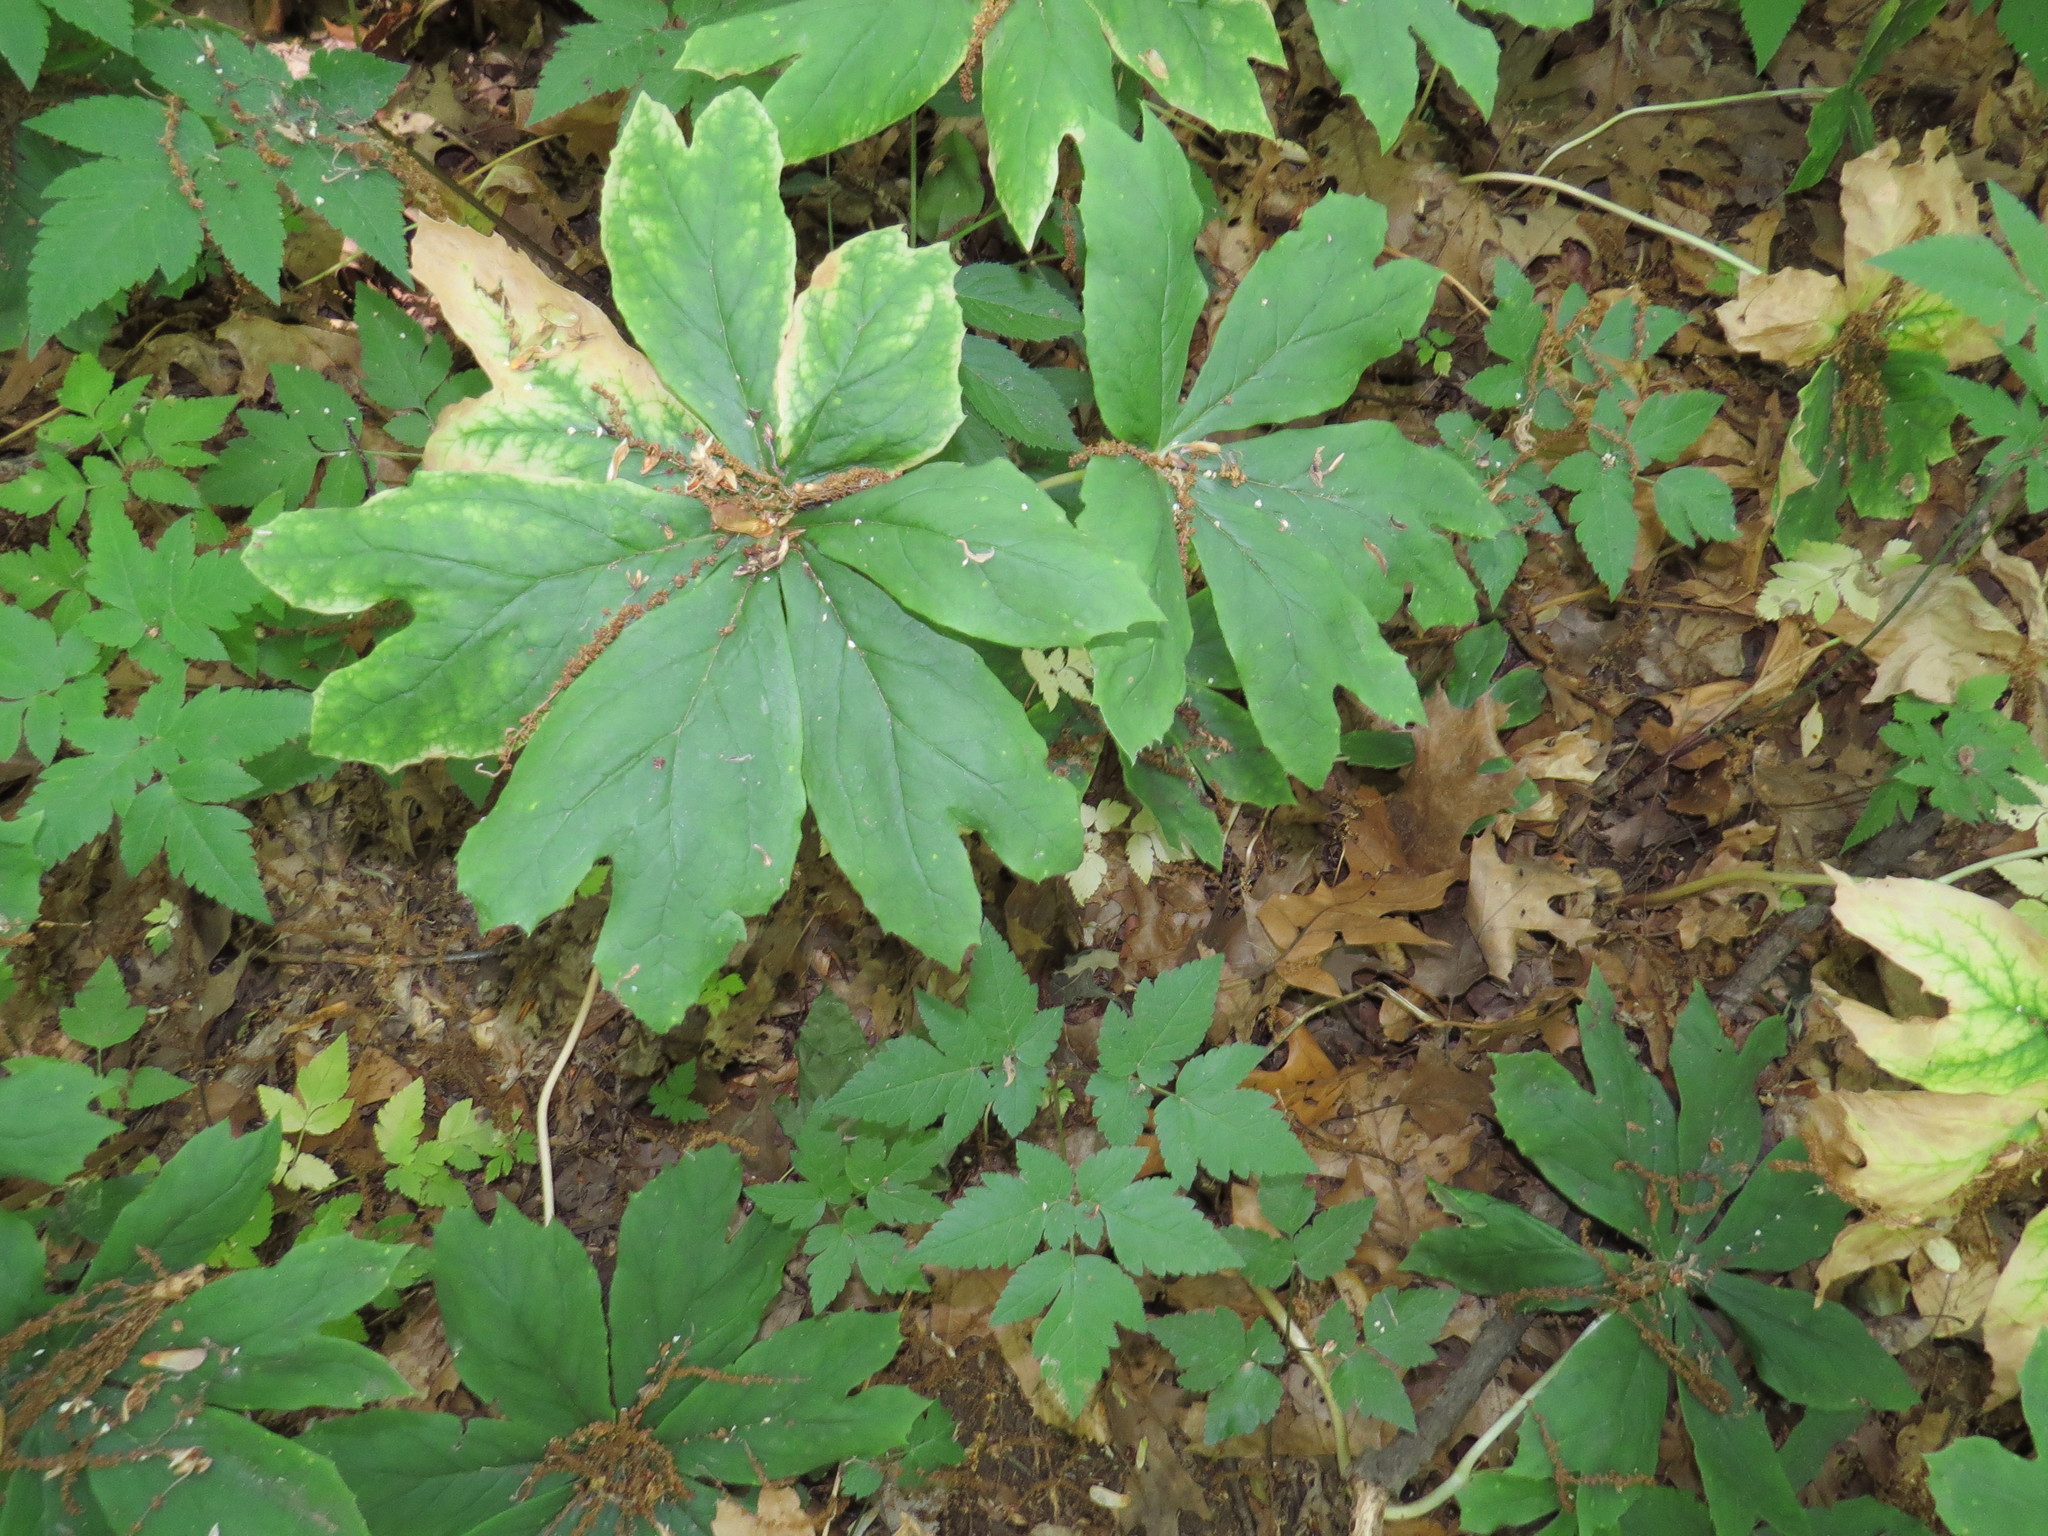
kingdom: Plantae
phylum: Tracheophyta
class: Magnoliopsida
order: Ranunculales
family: Berberidaceae
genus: Podophyllum
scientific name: Podophyllum peltatum
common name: Wild mandrake
